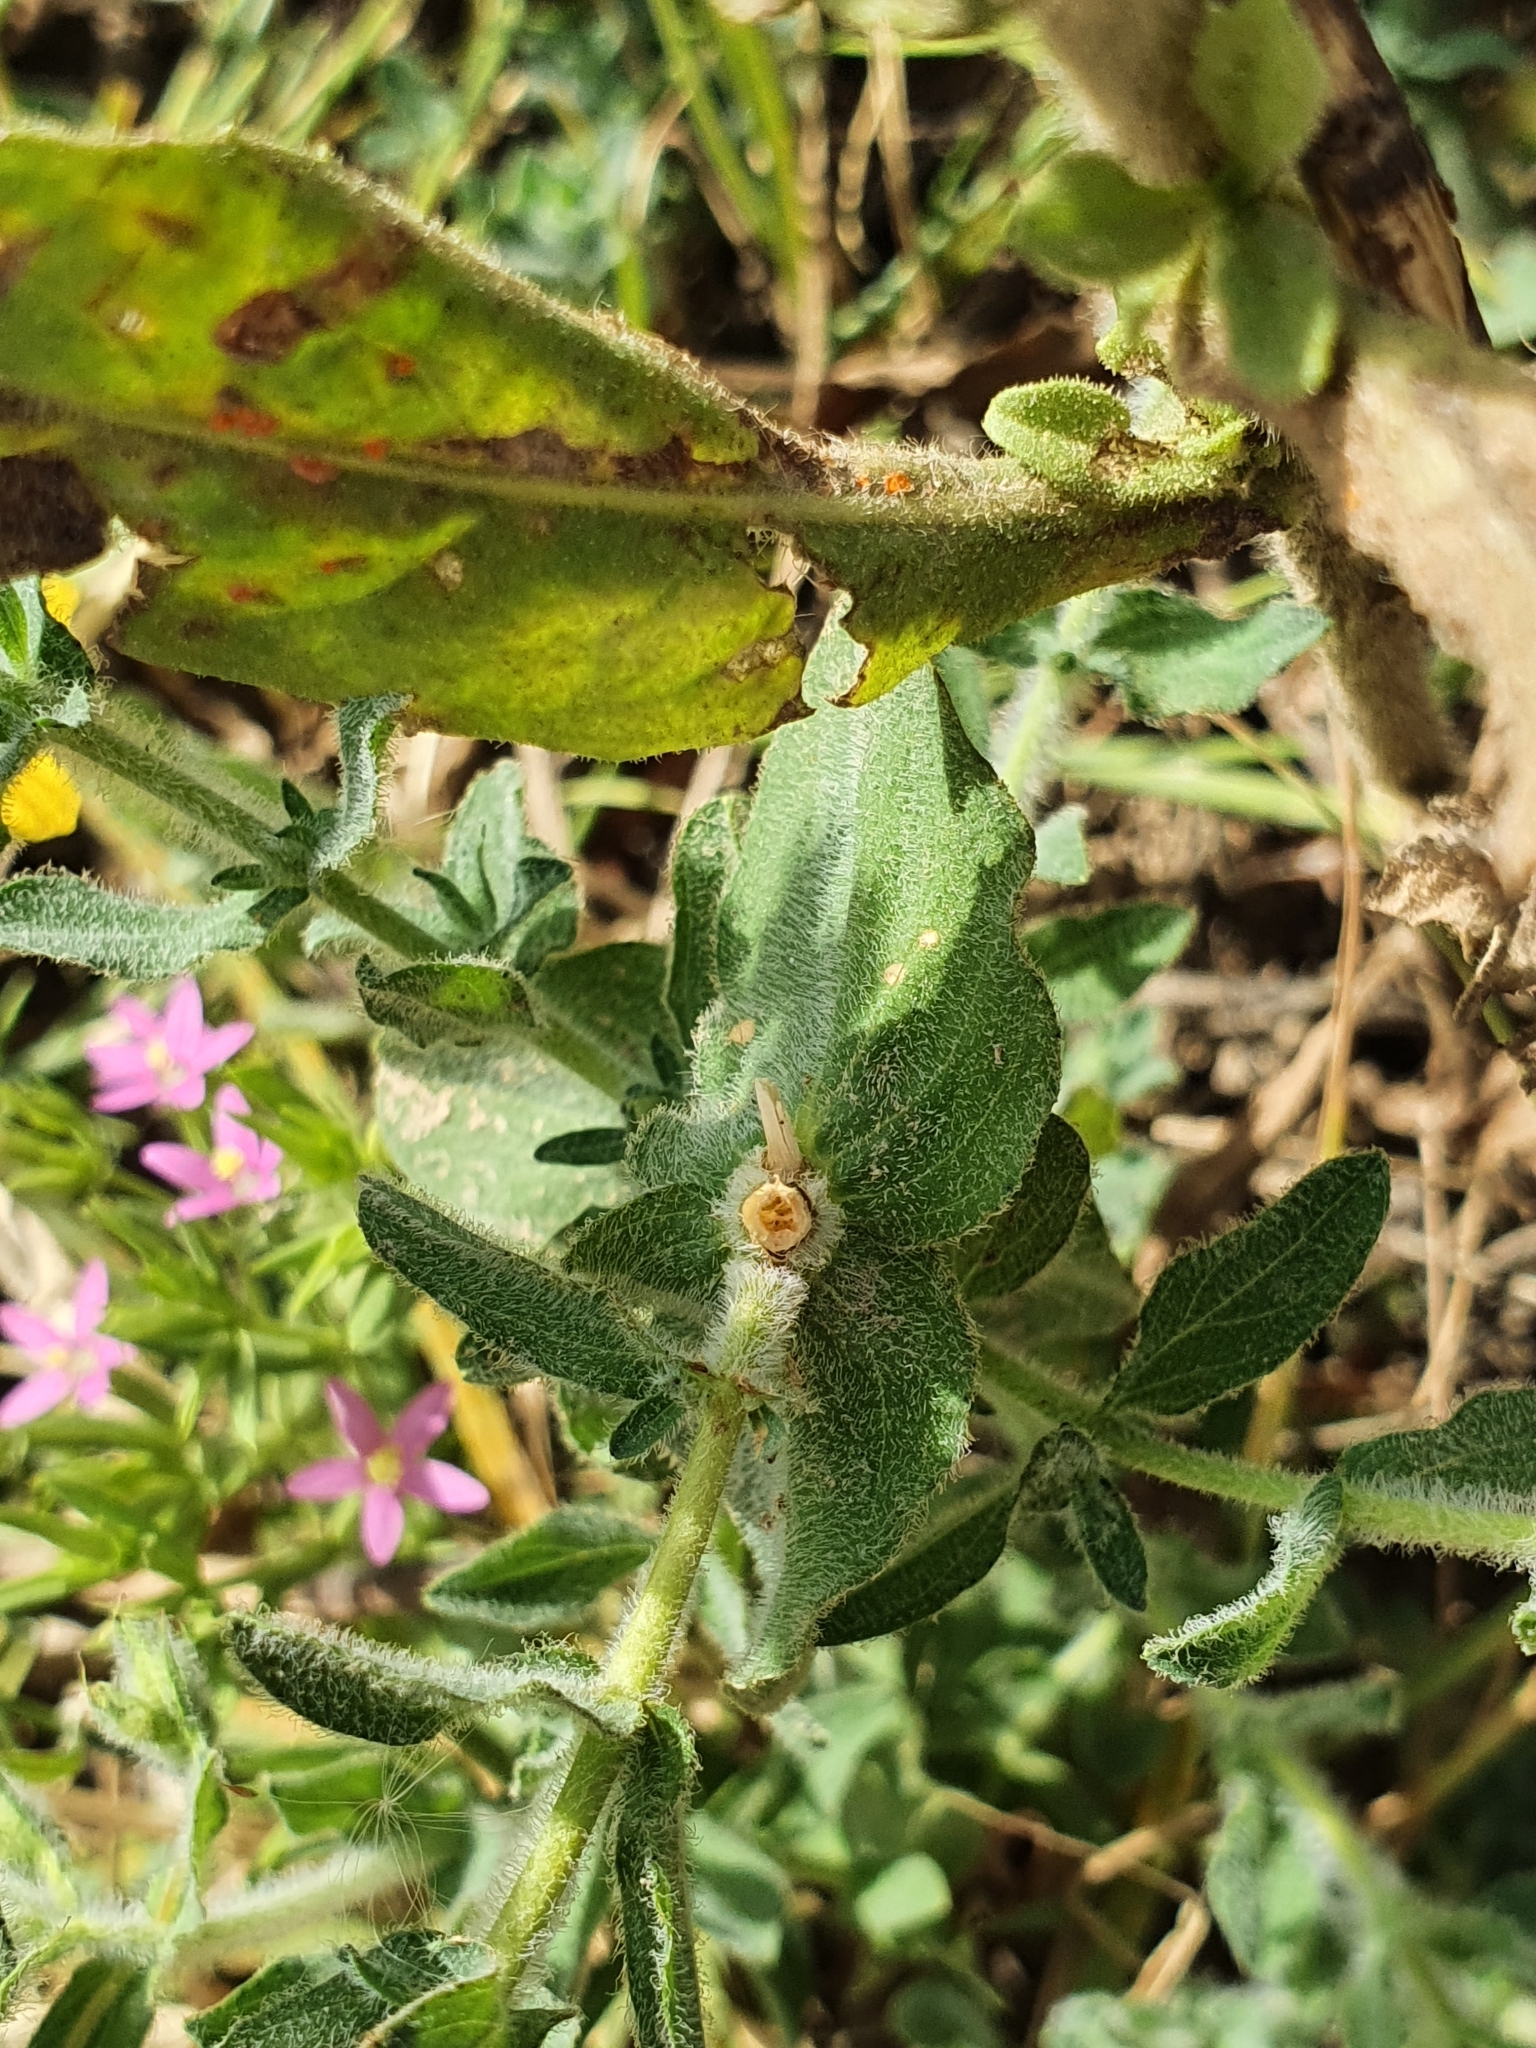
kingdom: Plantae
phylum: Tracheophyta
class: Magnoliopsida
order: Malpighiales
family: Hypericaceae
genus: Hypericum
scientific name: Hypericum pubescens
